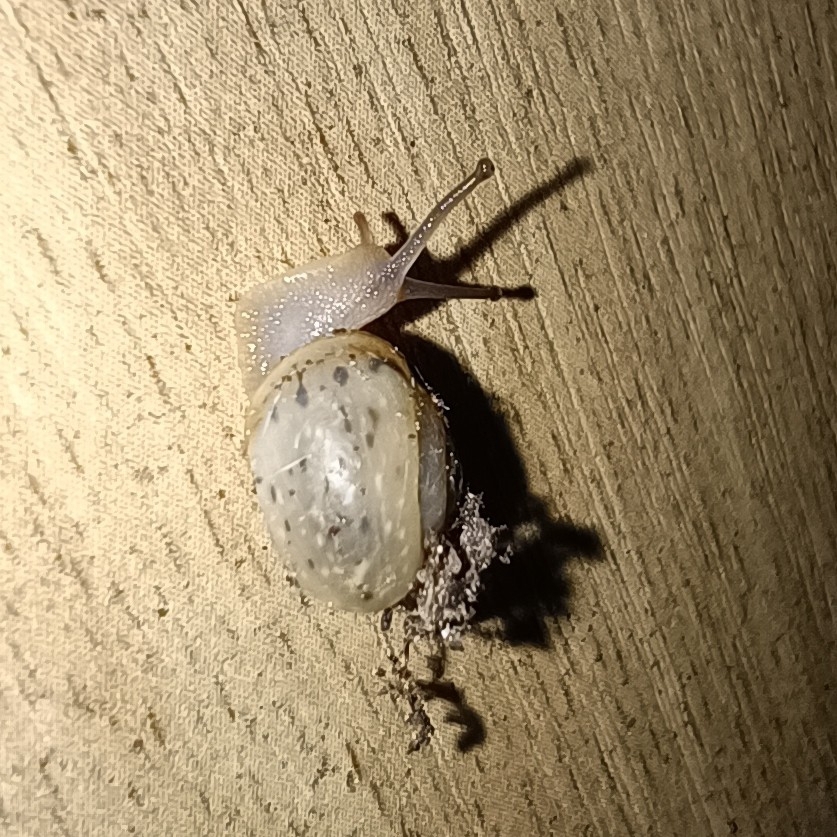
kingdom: Animalia
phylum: Mollusca
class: Gastropoda
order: Stylommatophora
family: Camaenidae
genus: Fruticicola
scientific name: Fruticicola fruticum
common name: Bush snail
